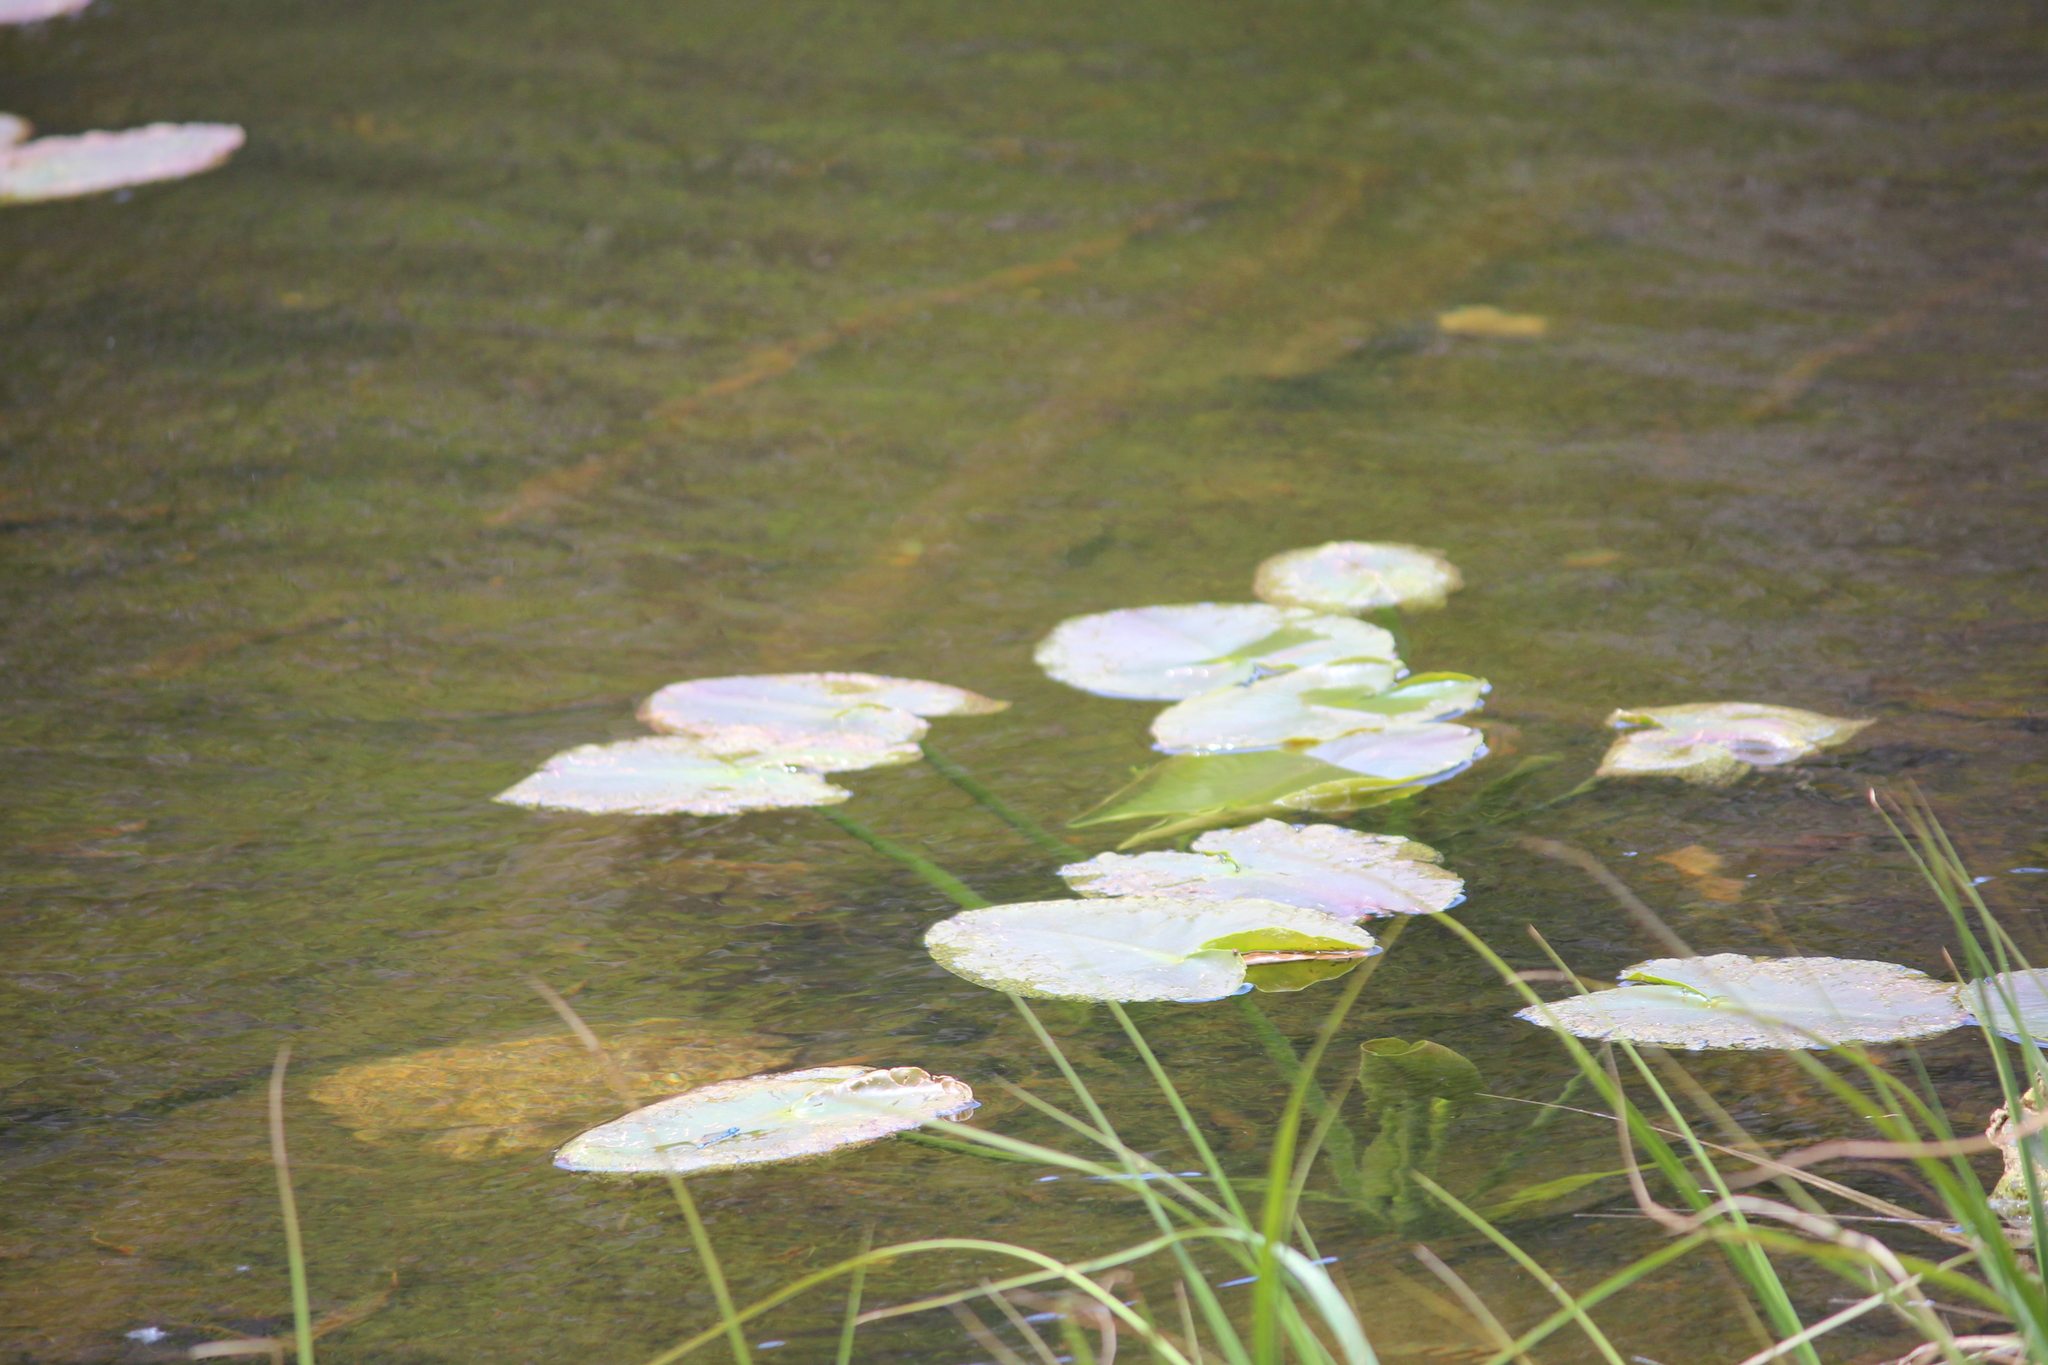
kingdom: Plantae
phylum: Tracheophyta
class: Magnoliopsida
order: Nymphaeales
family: Nymphaeaceae
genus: Nuphar
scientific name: Nuphar polysepala
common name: Rocky mountain cow-lily
